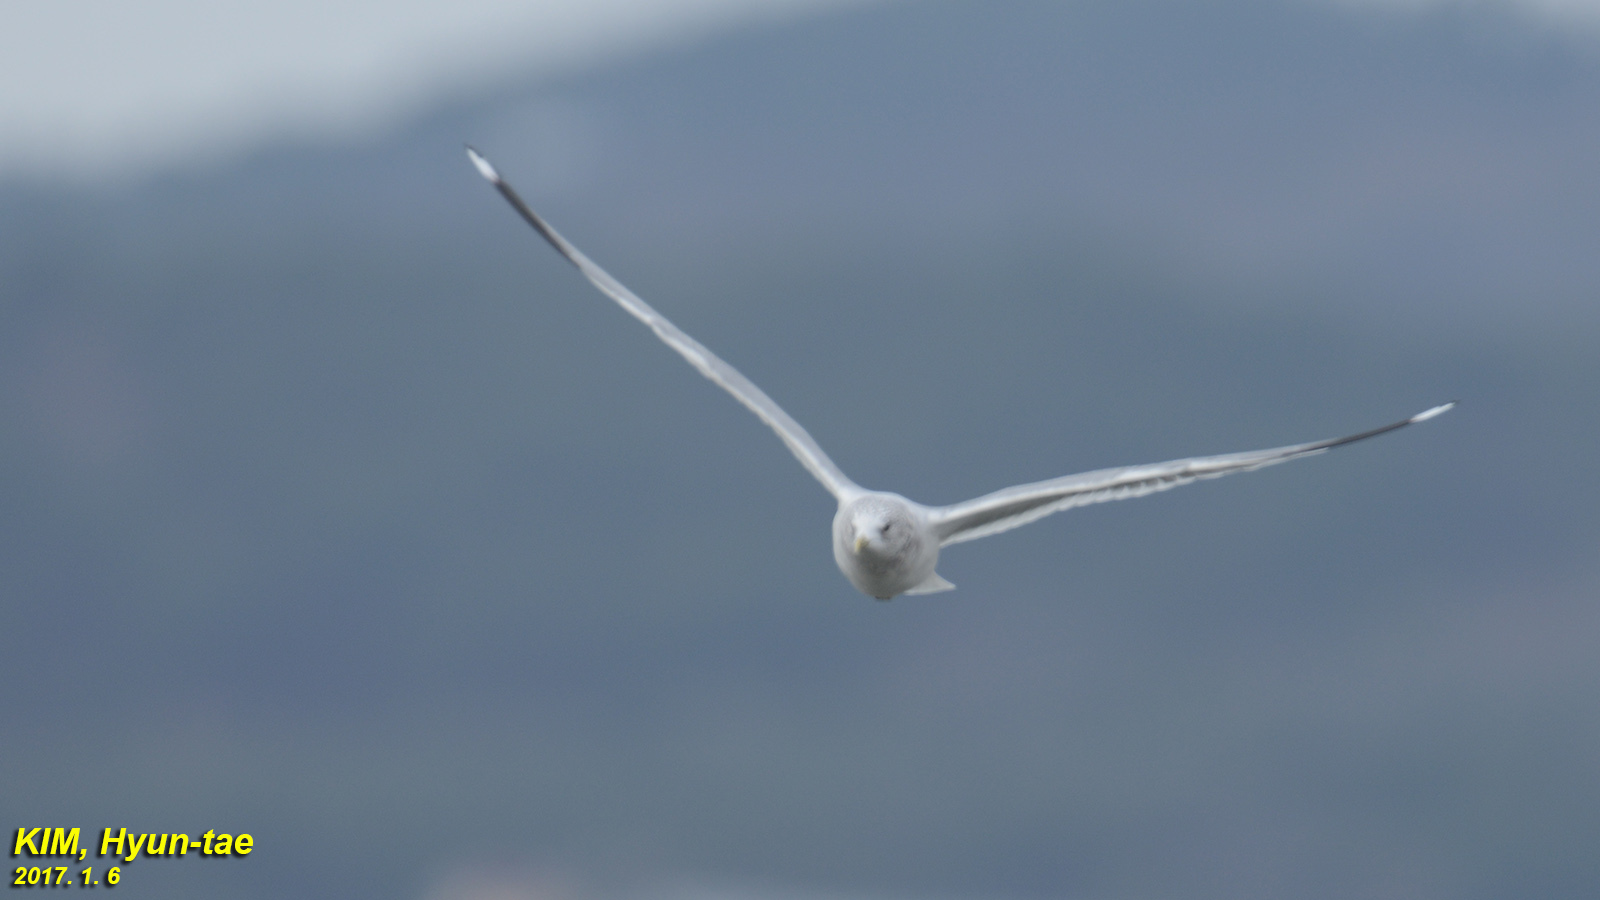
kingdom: Animalia
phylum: Chordata
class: Aves
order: Charadriiformes
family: Laridae
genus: Larus
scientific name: Larus canus
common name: Mew gull
